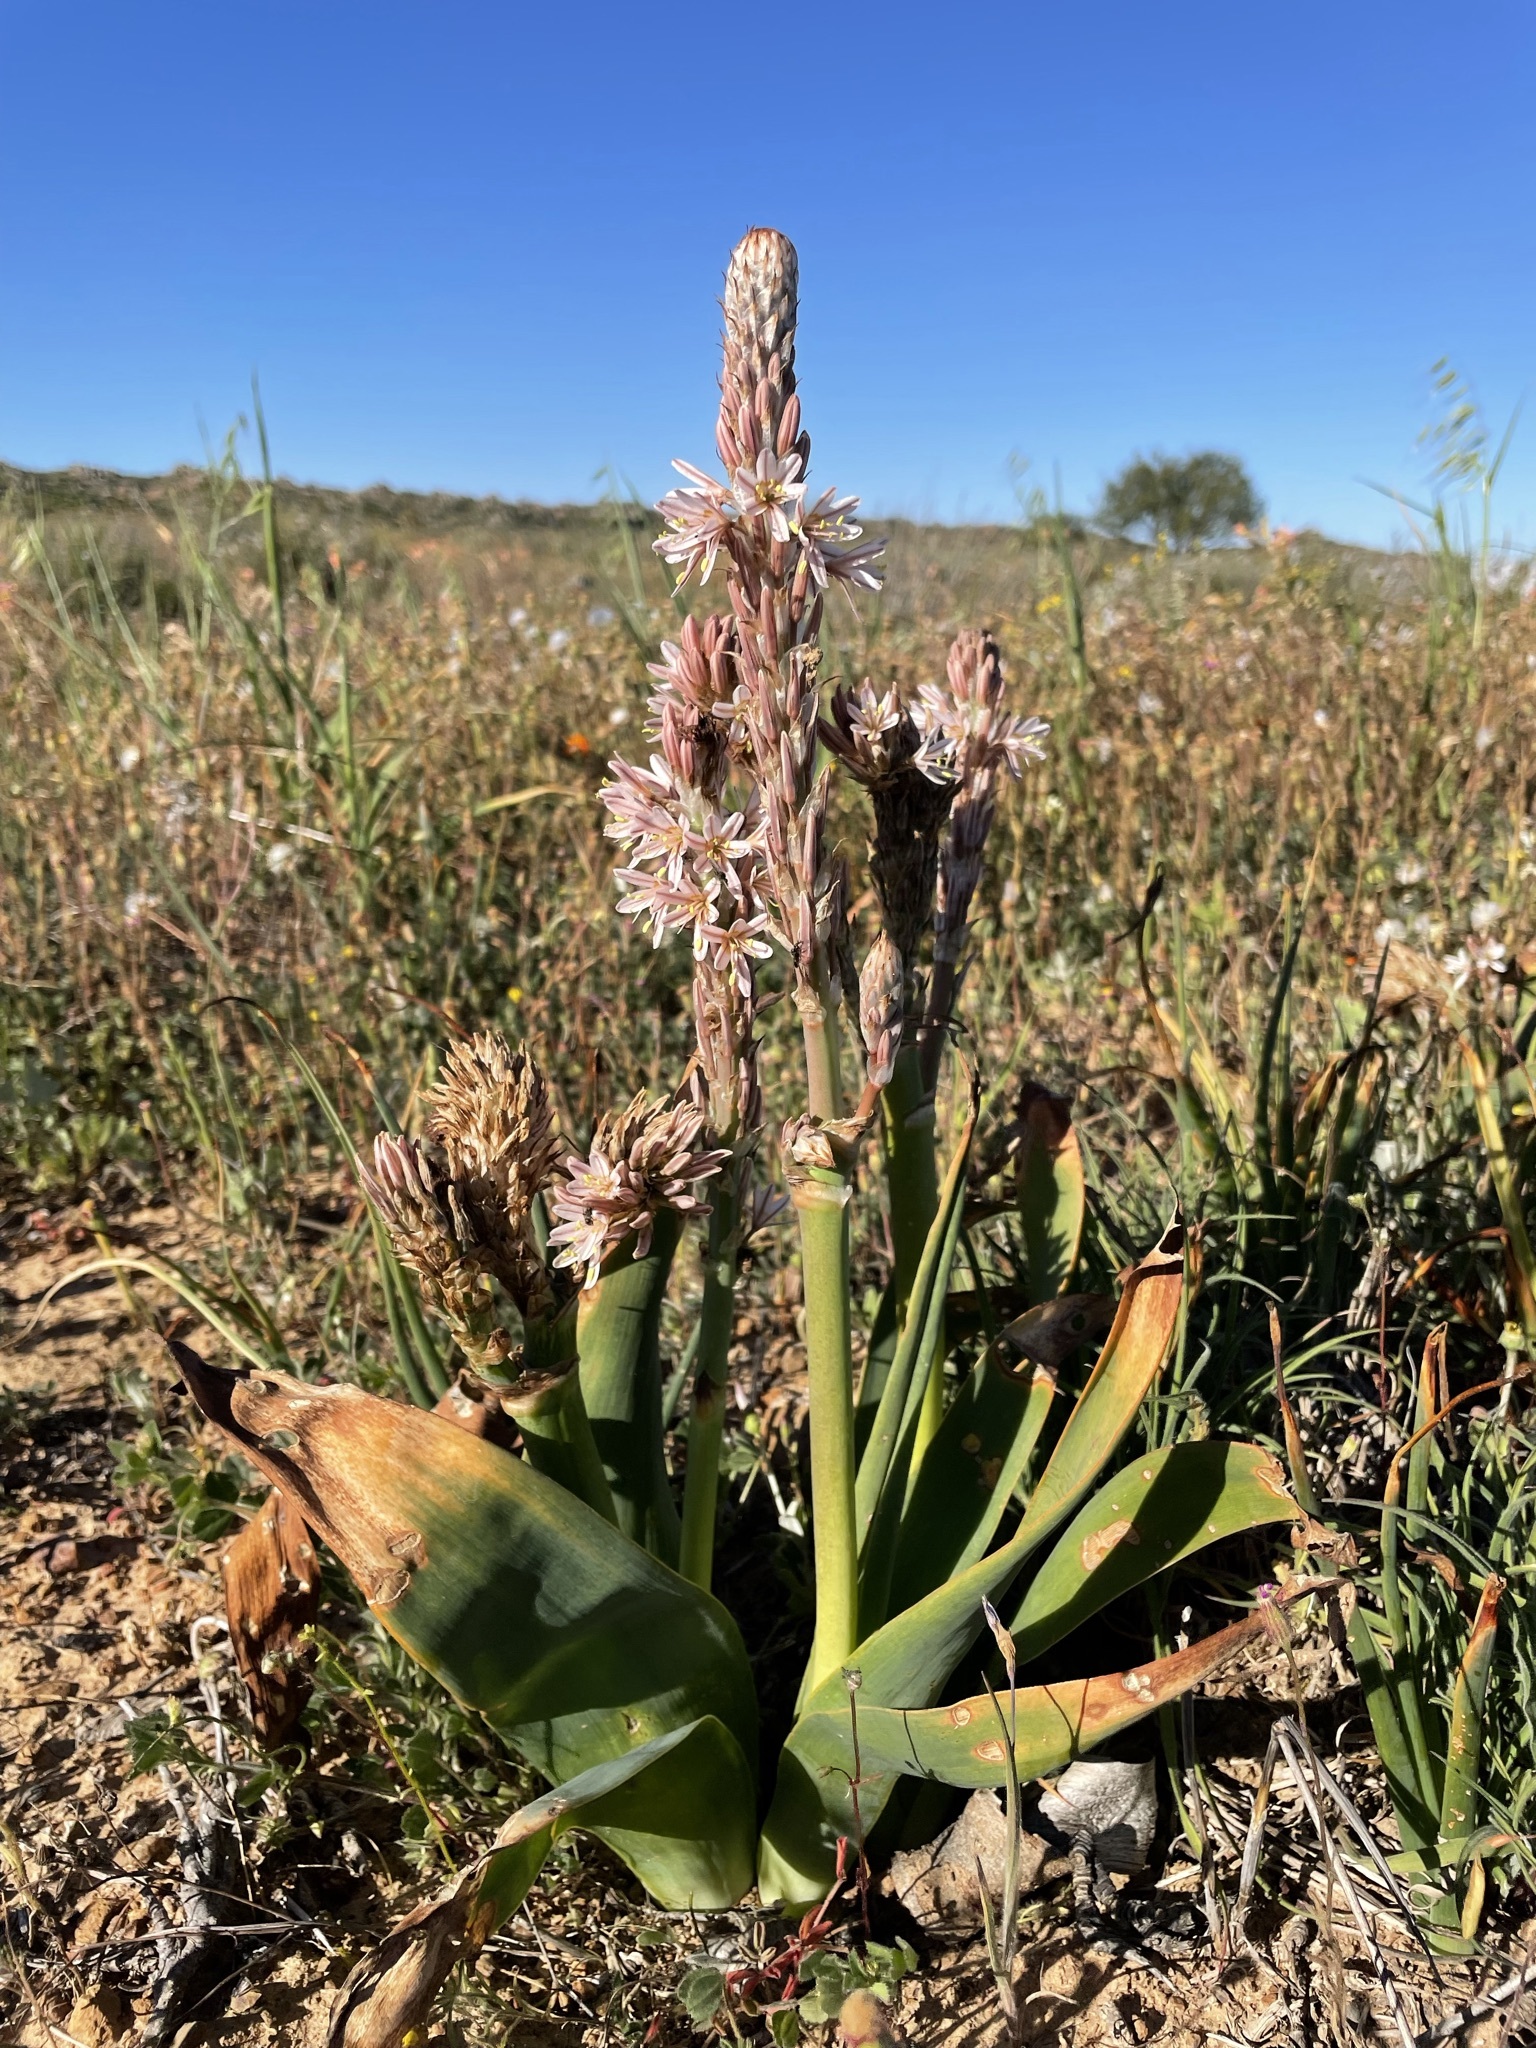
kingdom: Plantae
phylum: Tracheophyta
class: Liliopsida
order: Asparagales
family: Asphodelaceae
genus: Trachyandra
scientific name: Trachyandra falcata
